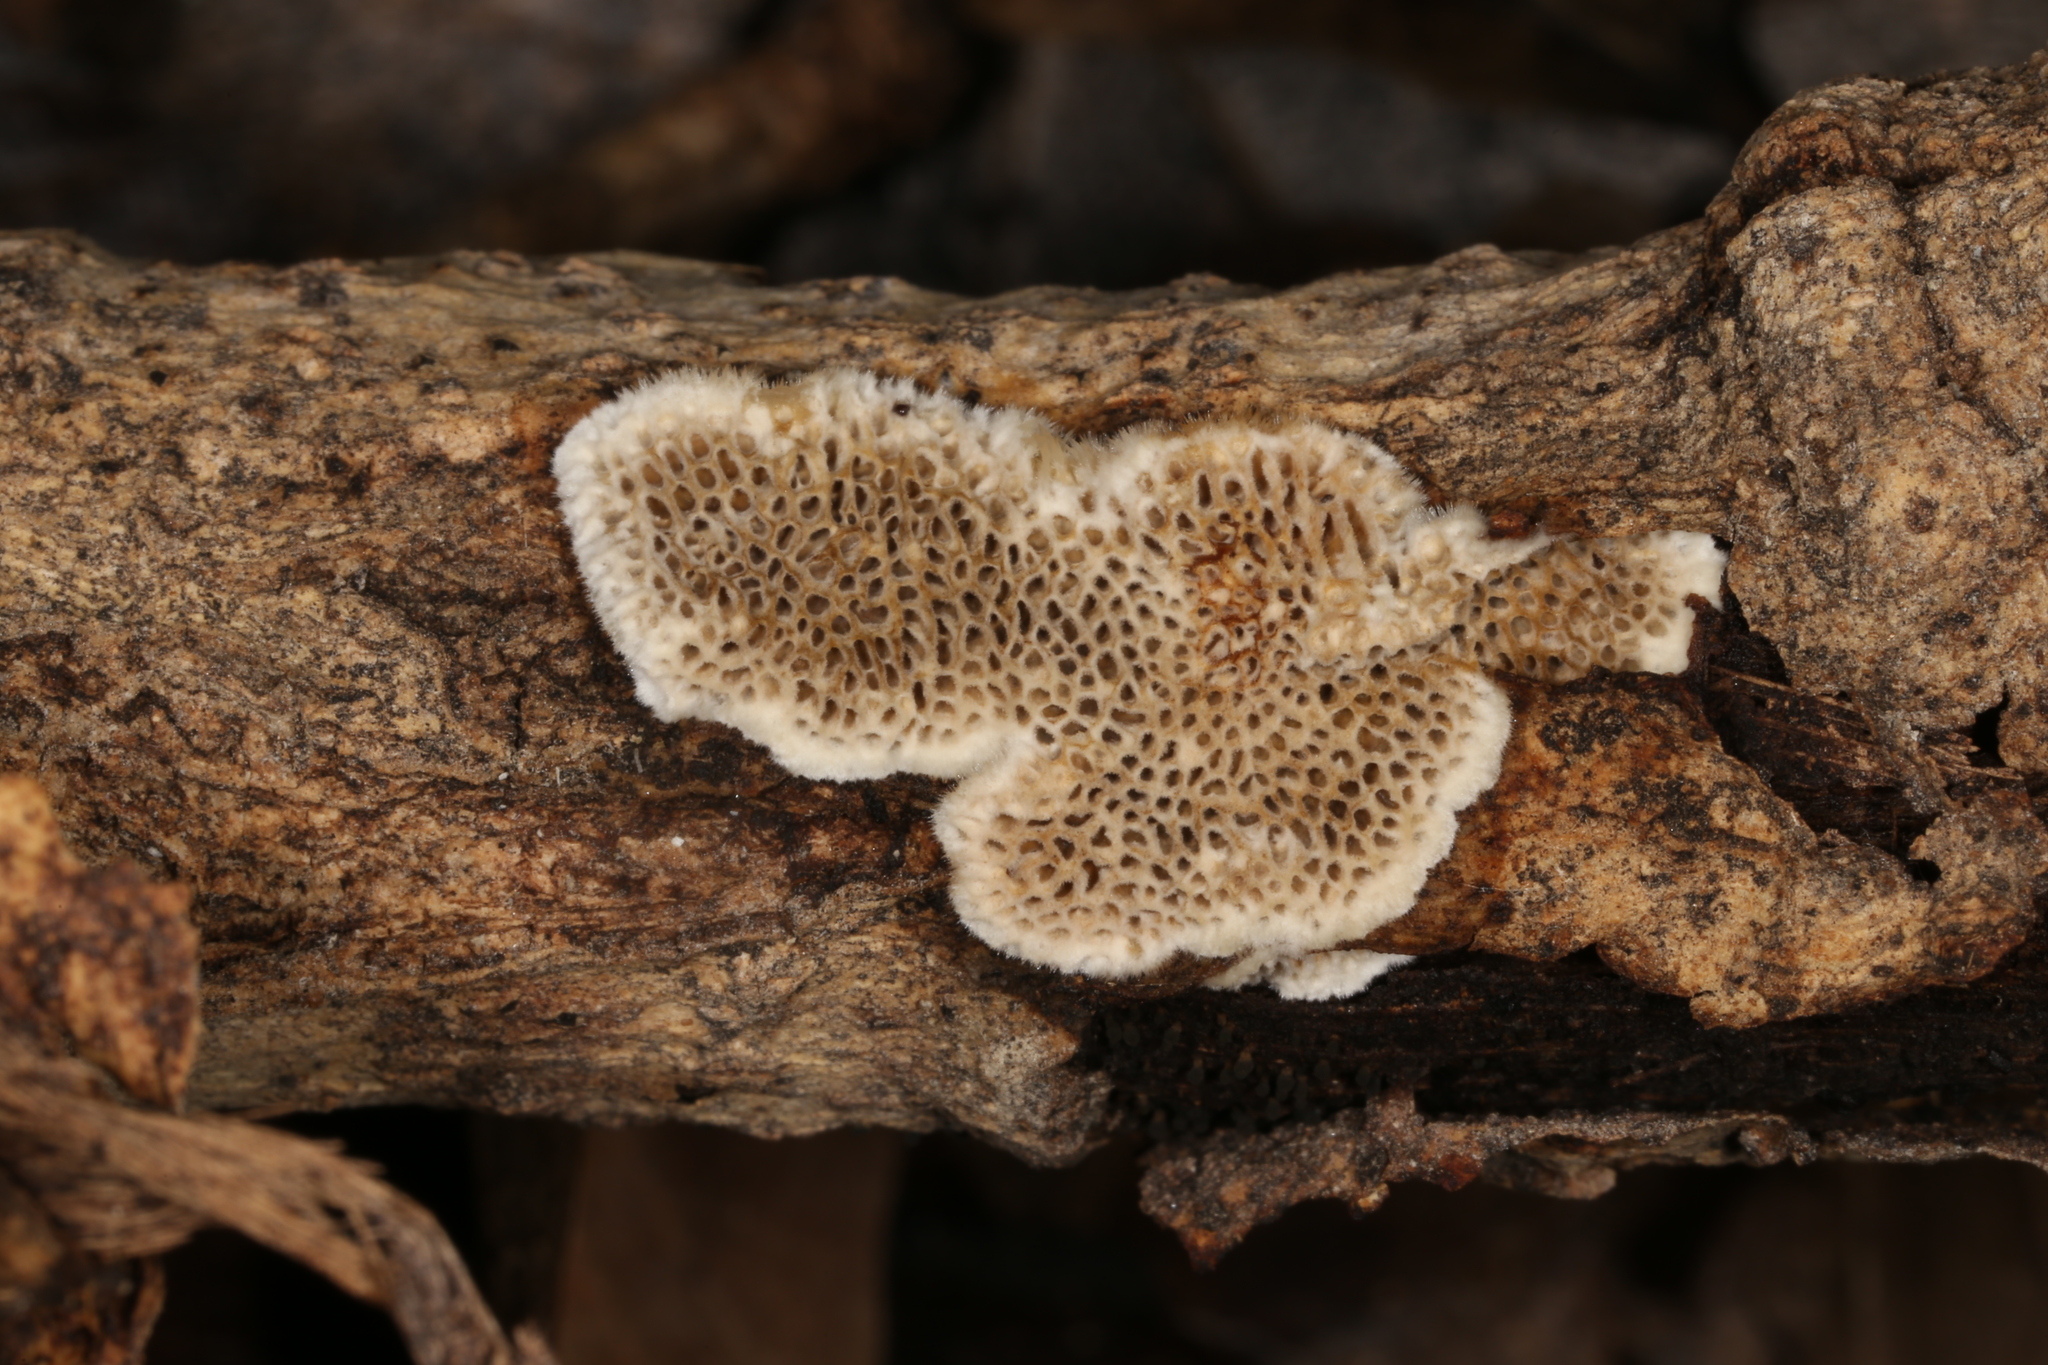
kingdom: Fungi
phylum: Basidiomycota
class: Agaricomycetes
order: Polyporales
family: Polyporaceae
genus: Coriolopsis
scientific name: Coriolopsis gallica
